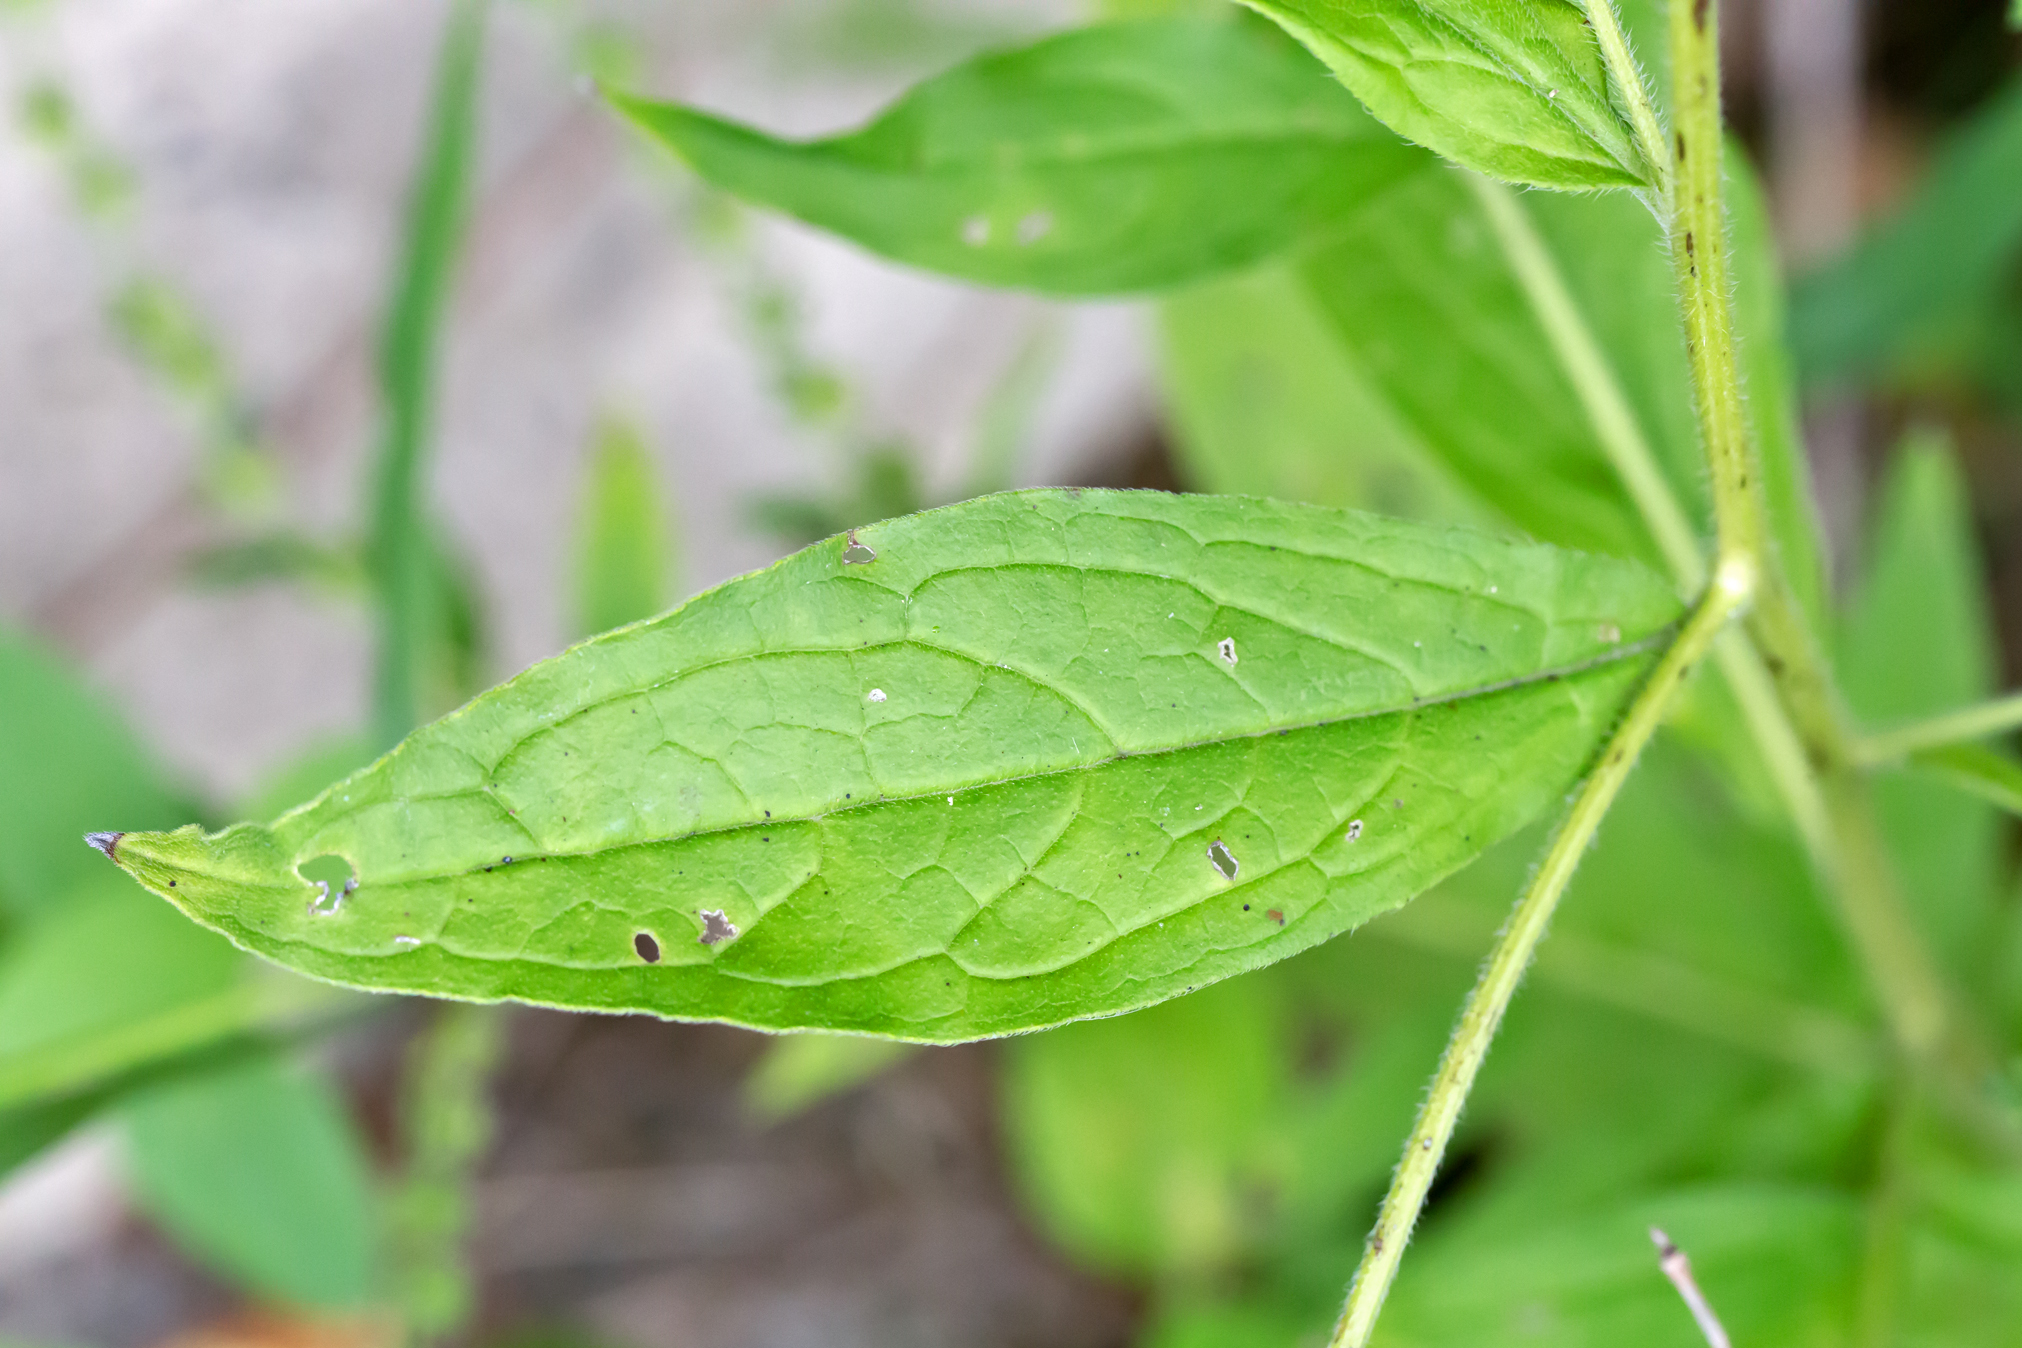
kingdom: Plantae
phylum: Tracheophyta
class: Magnoliopsida
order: Boraginales
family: Boraginaceae
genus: Hackelia
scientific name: Hackelia virginiana
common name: Beggar's-lice
